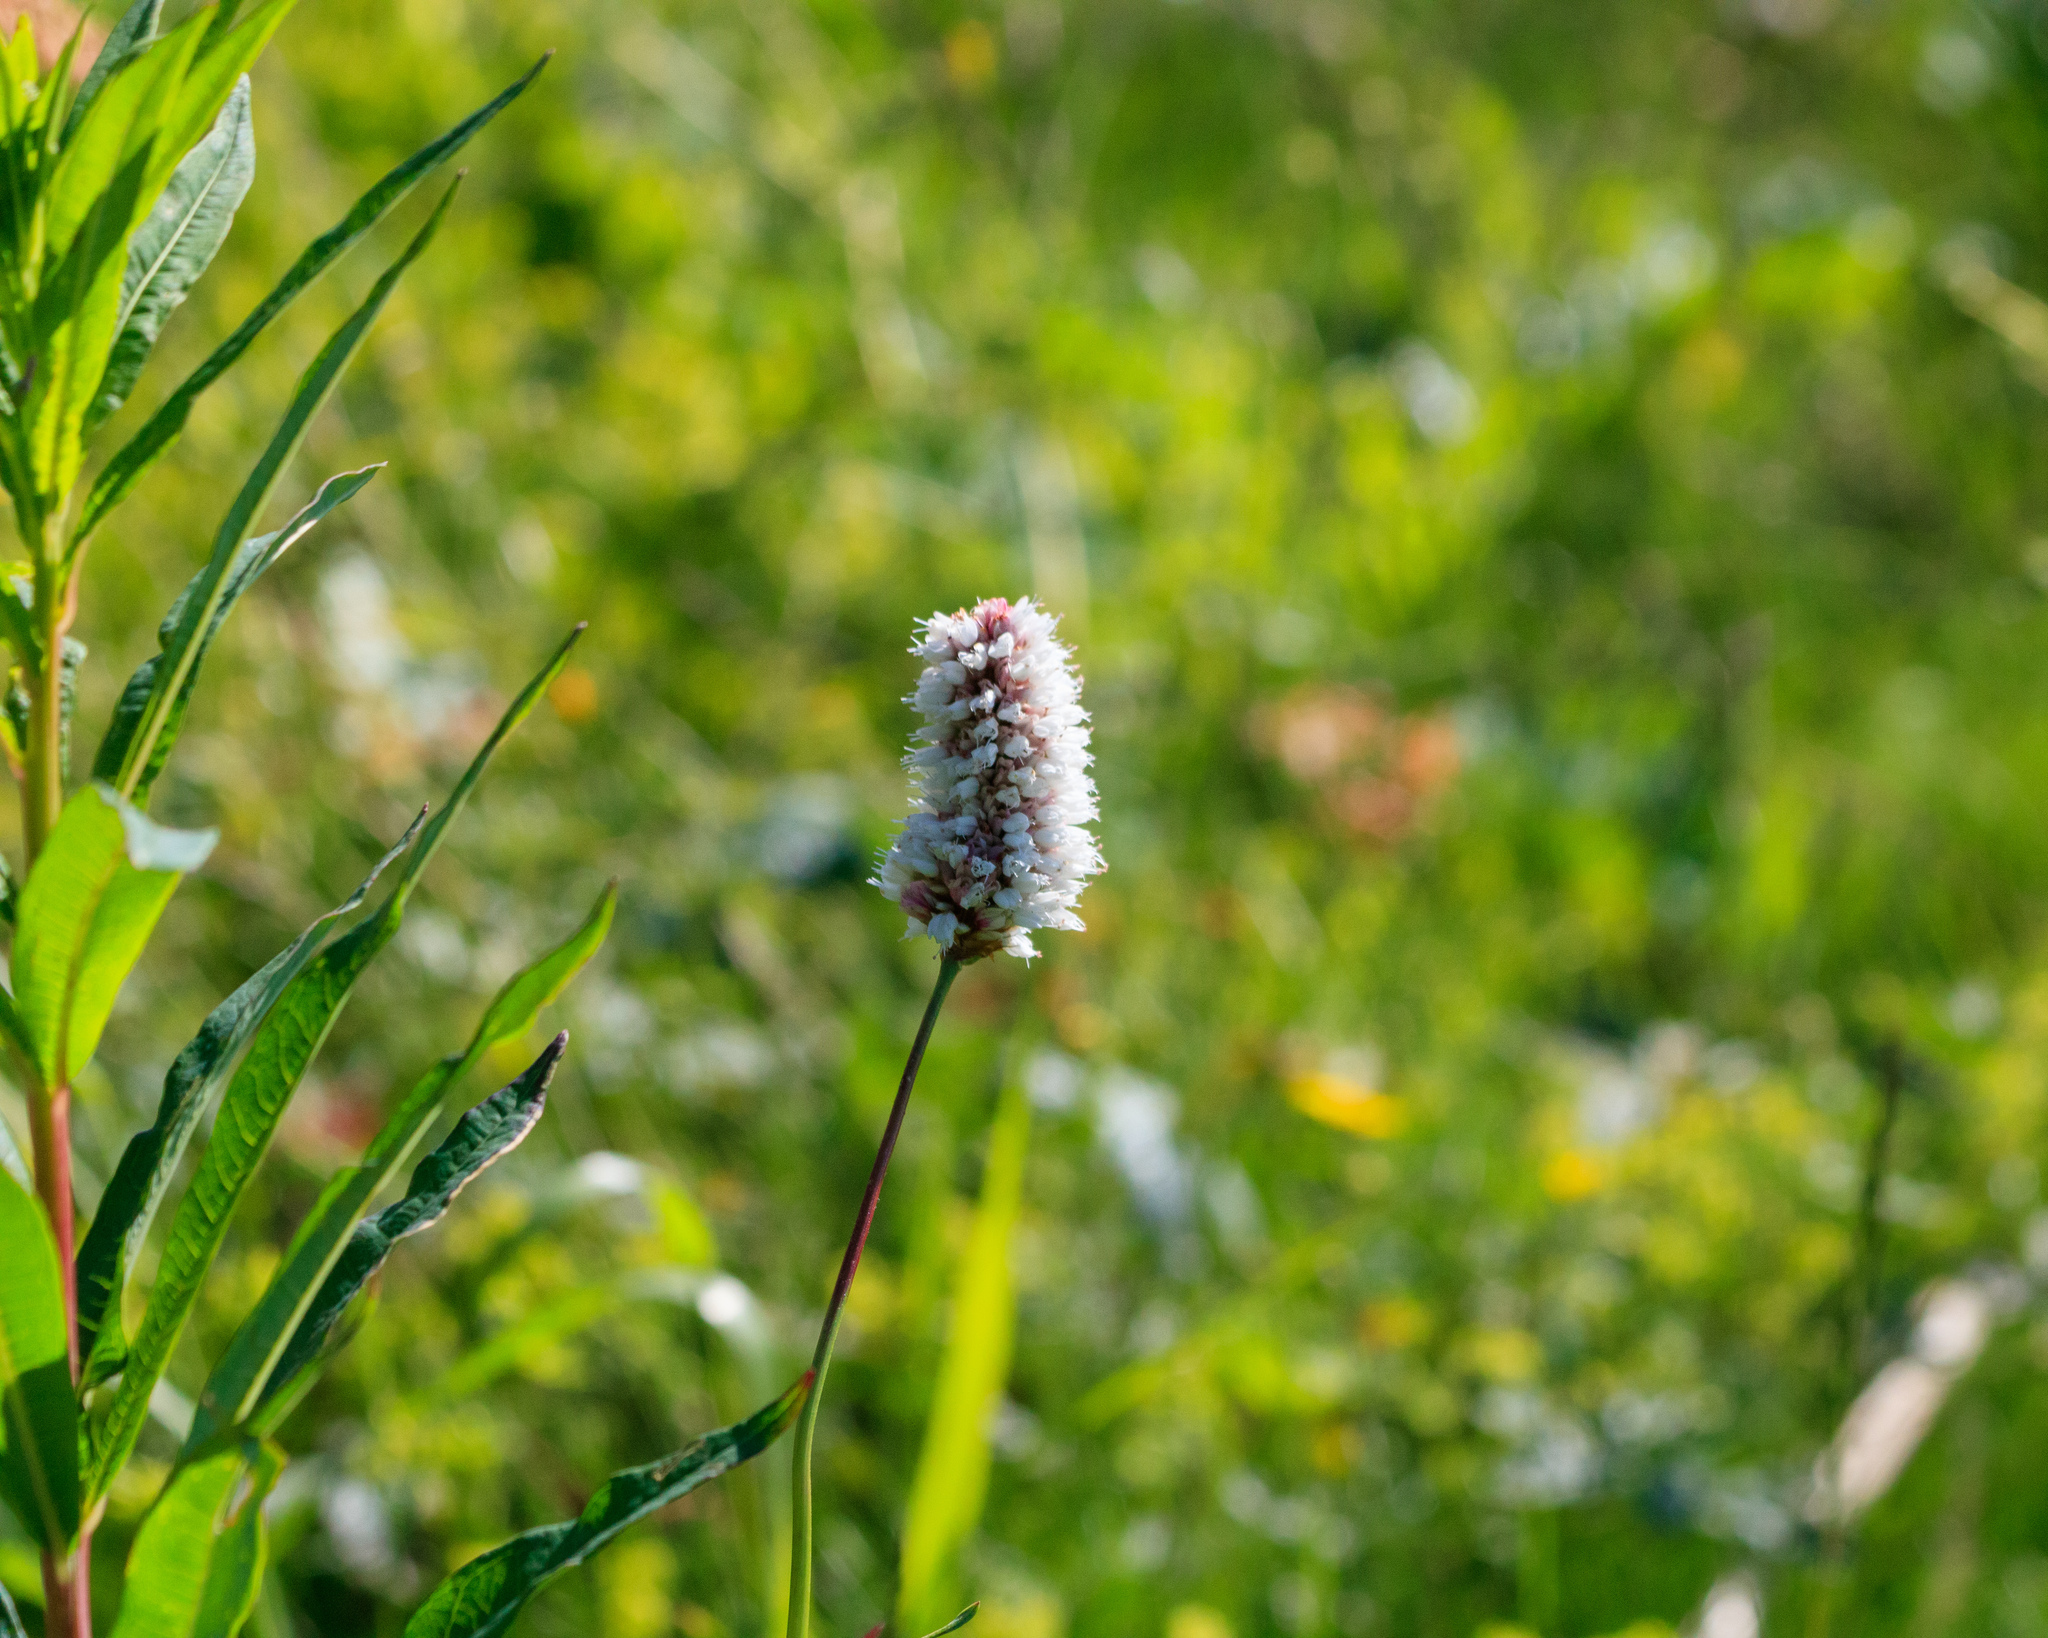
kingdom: Plantae
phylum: Tracheophyta
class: Magnoliopsida
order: Caryophyllales
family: Polygonaceae
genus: Bistorta
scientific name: Bistorta elliptica
